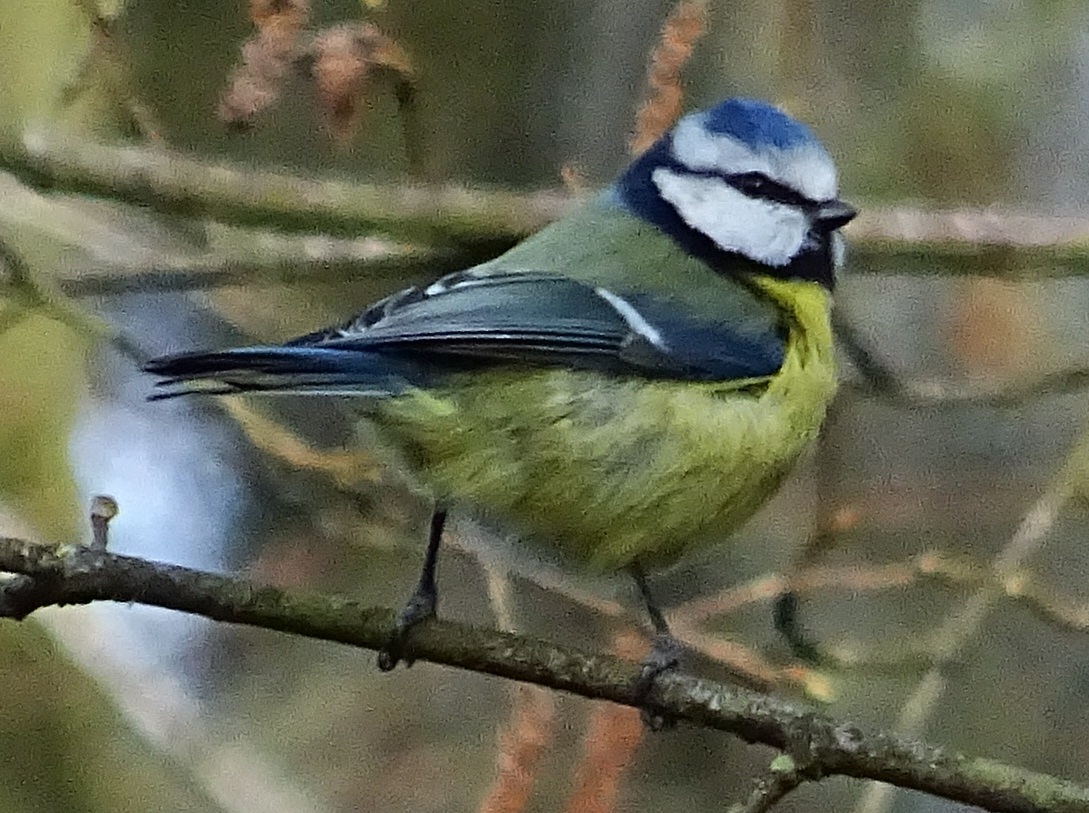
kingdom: Animalia
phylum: Chordata
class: Aves
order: Passeriformes
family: Paridae
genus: Cyanistes
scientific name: Cyanistes caeruleus
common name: Eurasian blue tit
